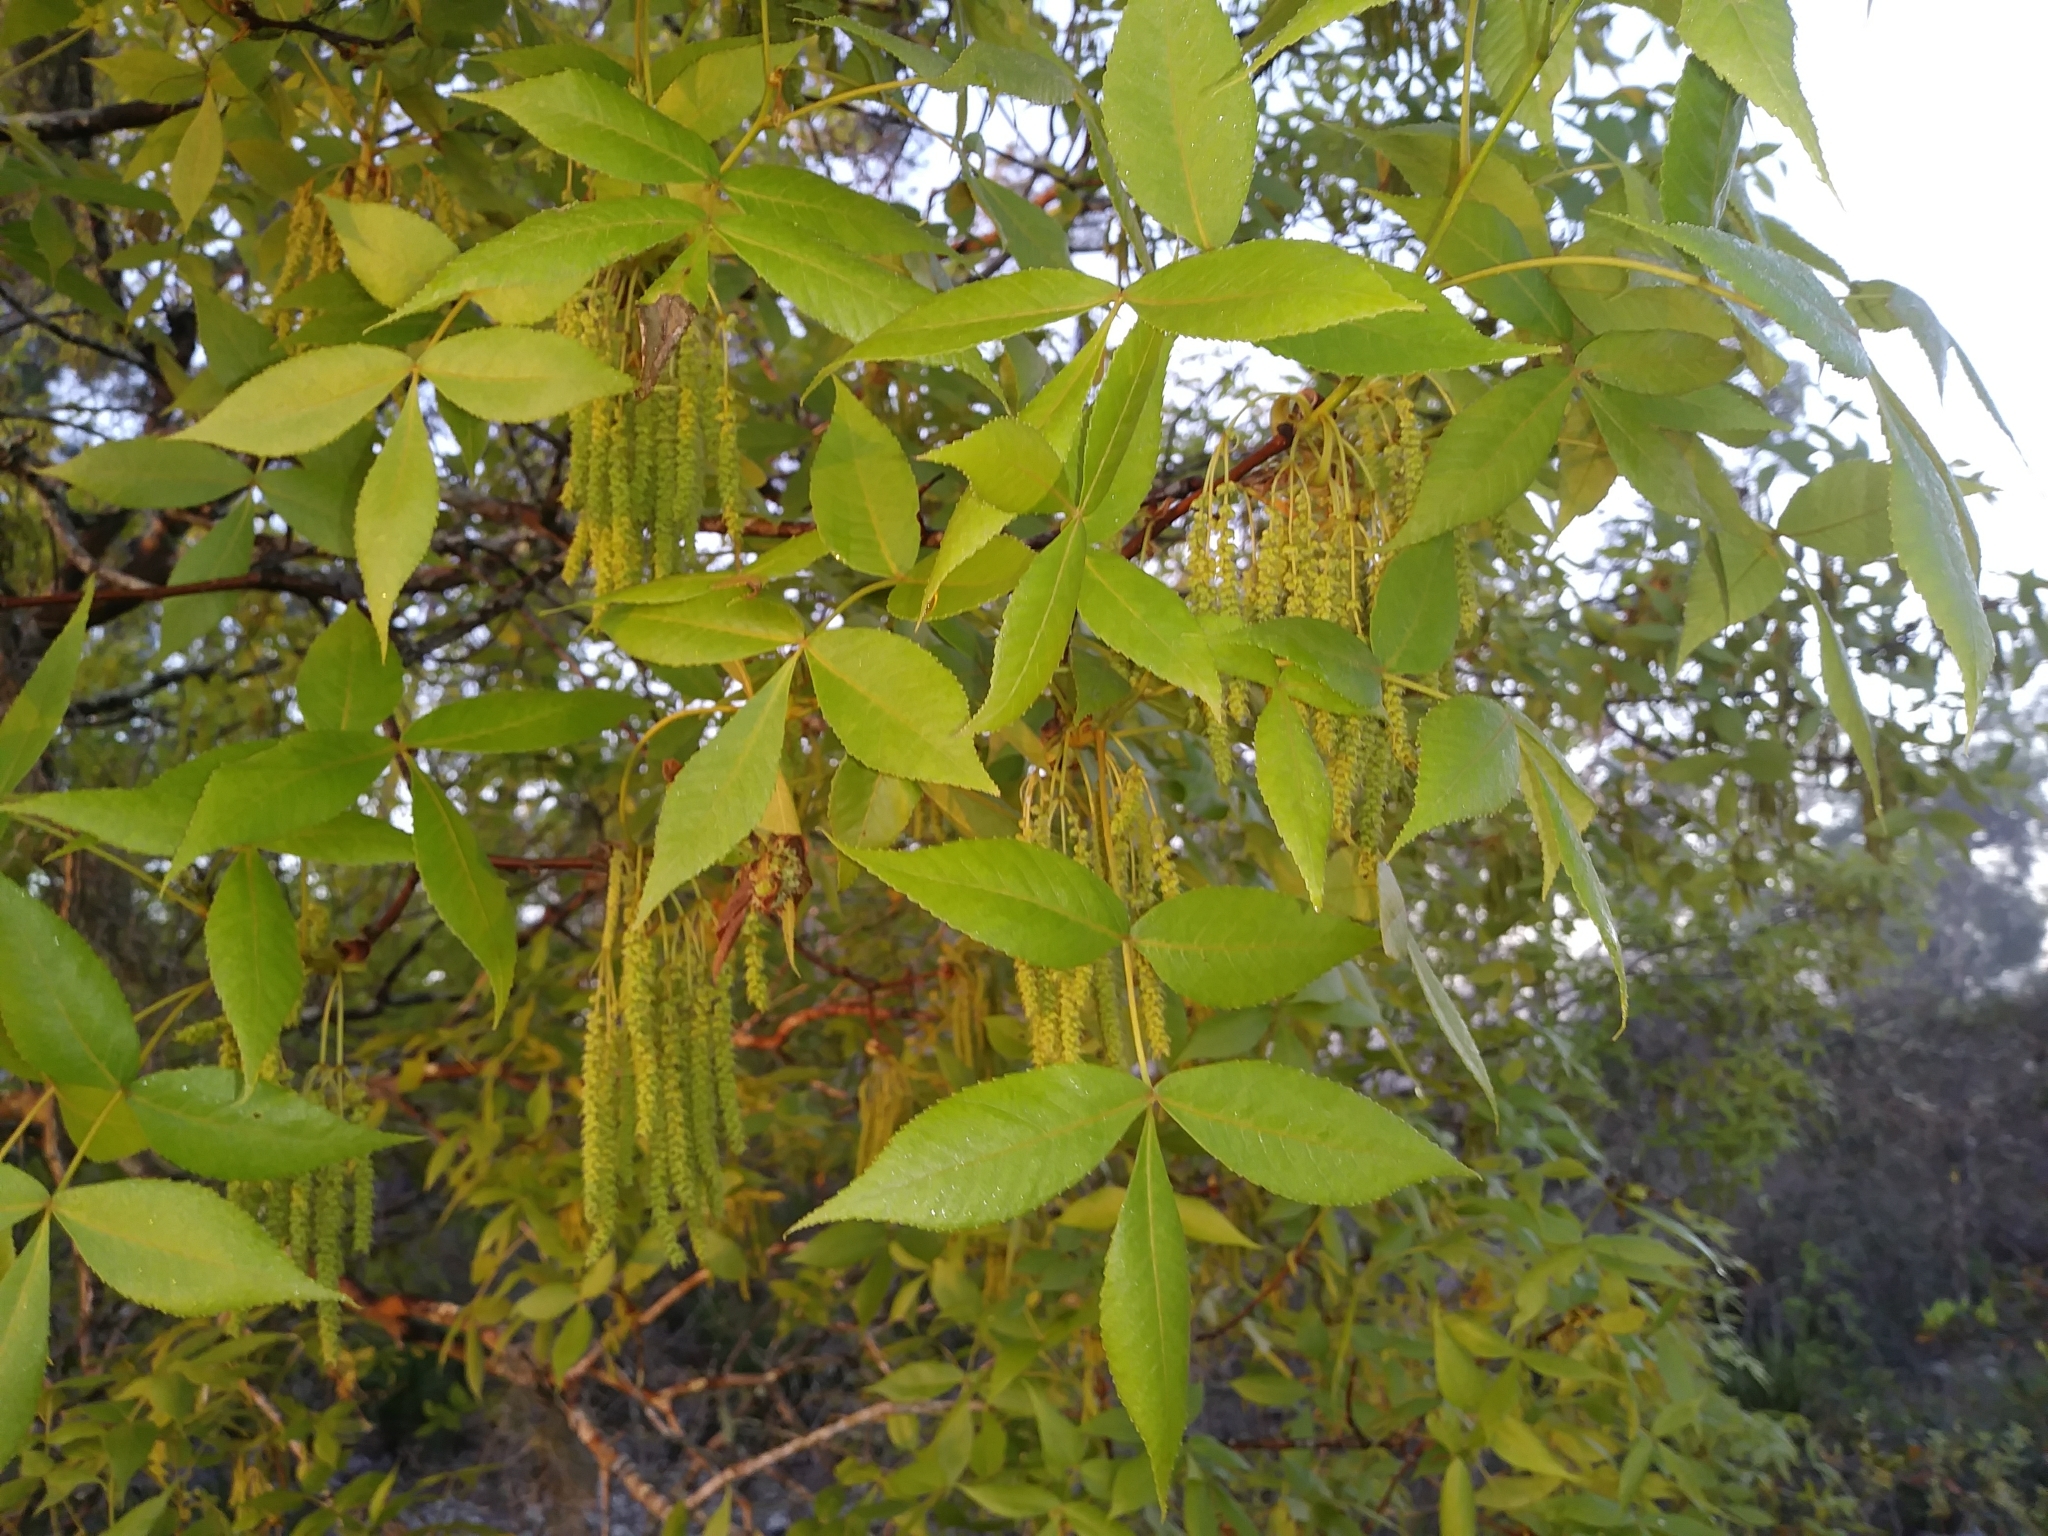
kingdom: Plantae
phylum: Tracheophyta
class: Magnoliopsida
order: Fagales
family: Juglandaceae
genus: Carya
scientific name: Carya floridana
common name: Scrub hickory
